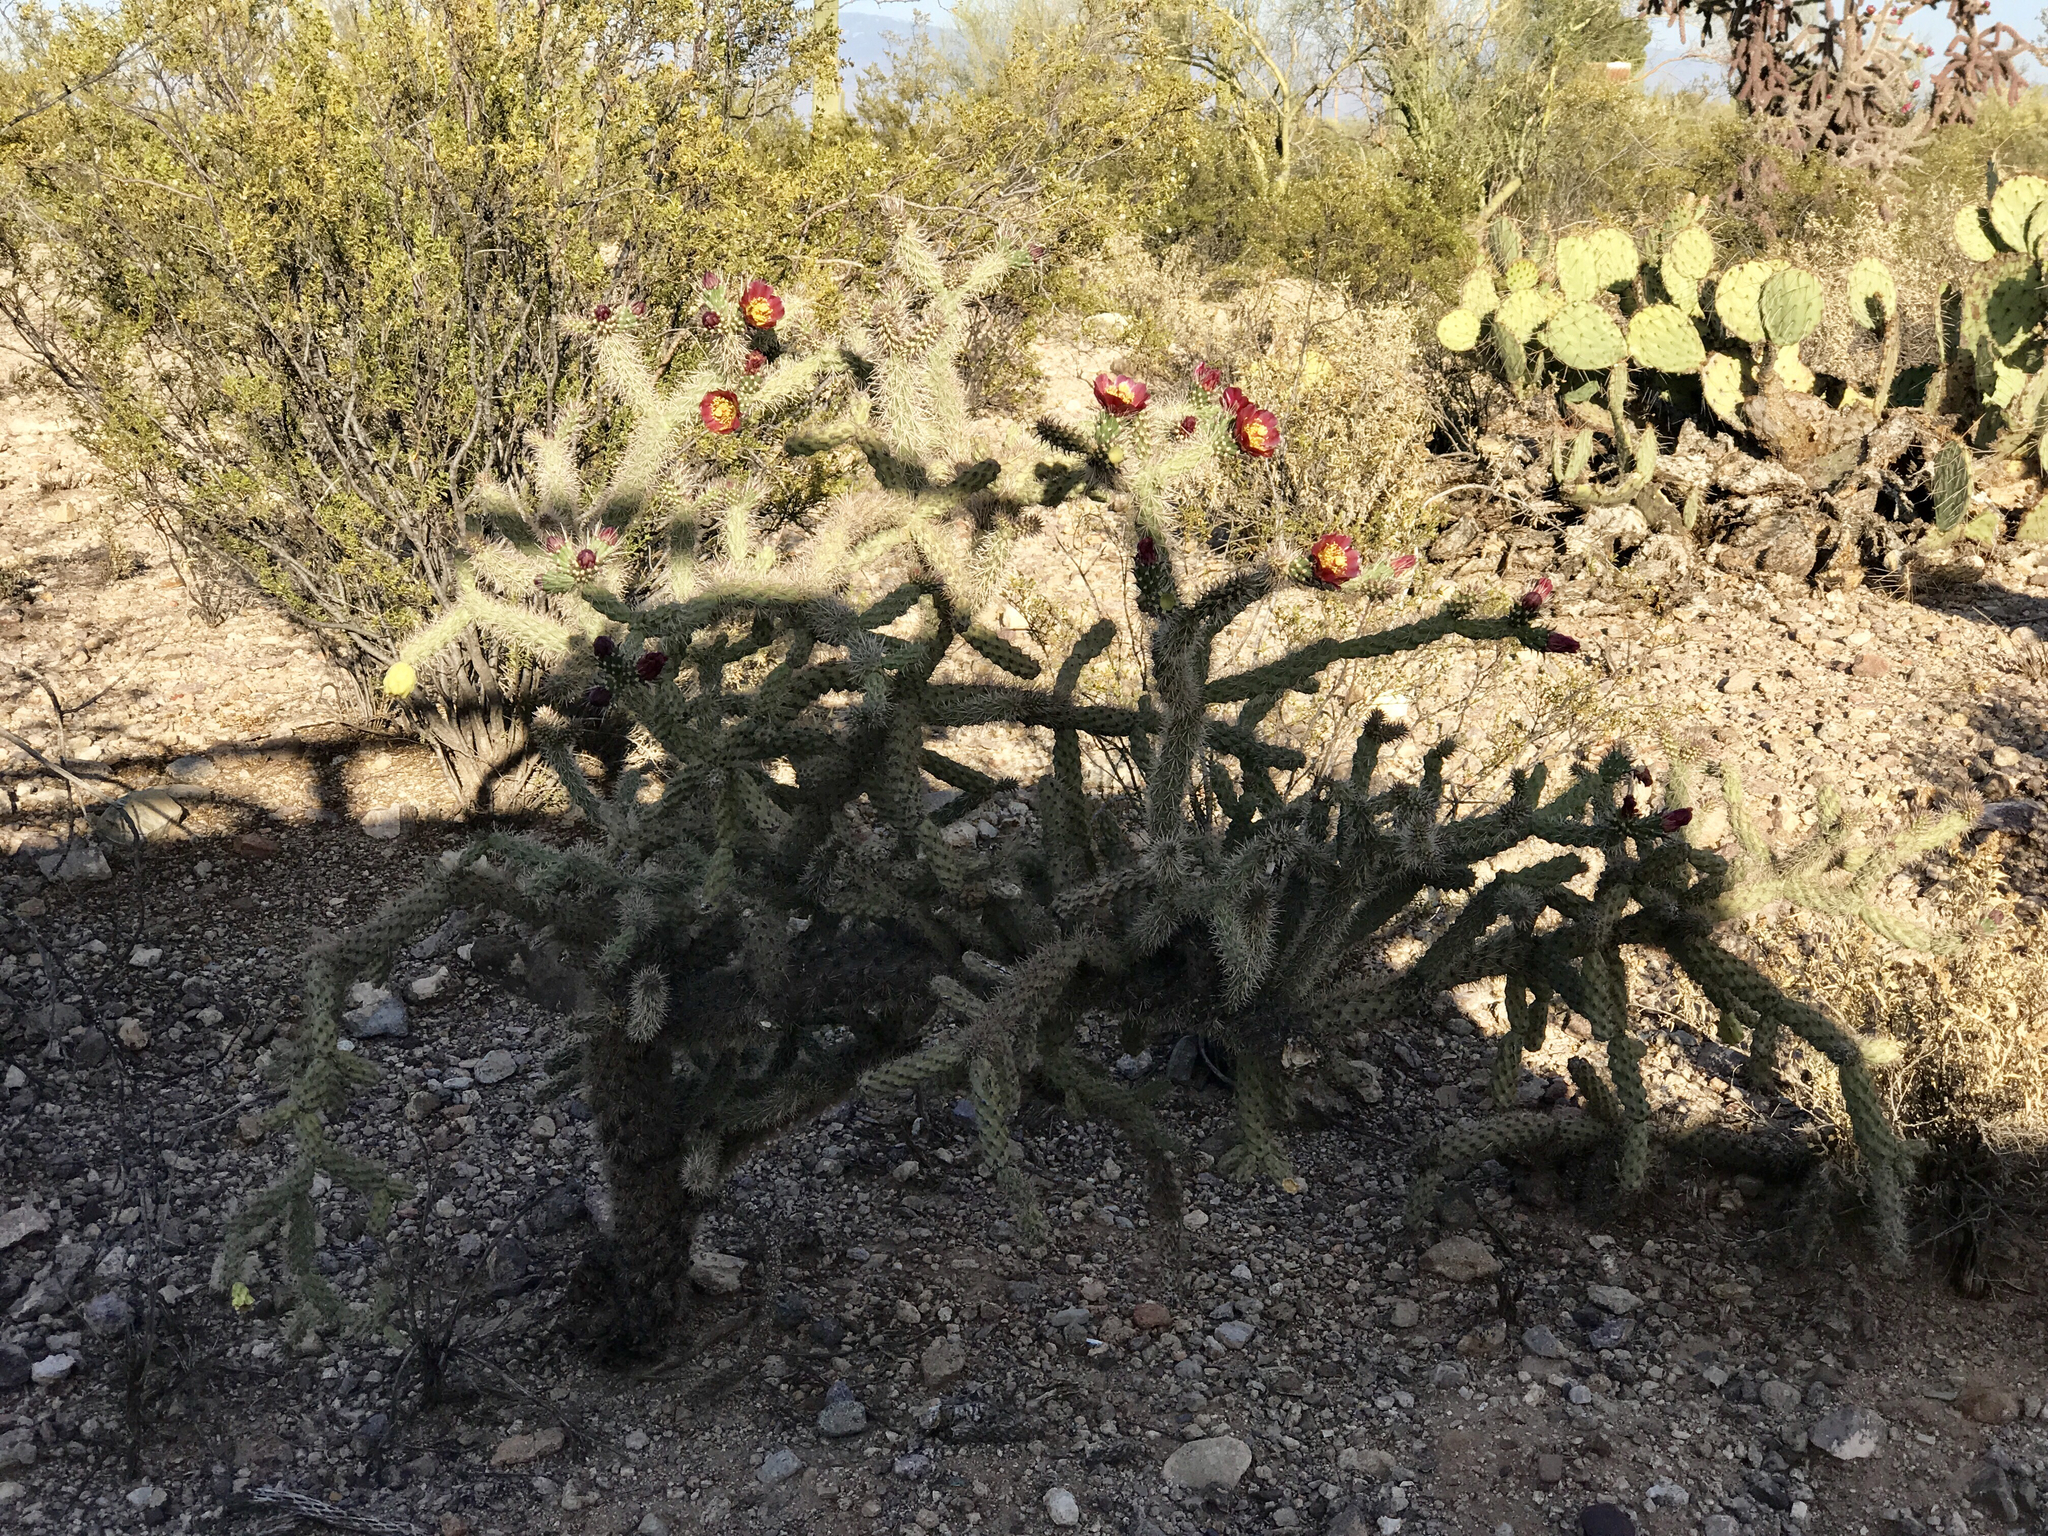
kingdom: Plantae
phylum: Tracheophyta
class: Magnoliopsida
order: Caryophyllales
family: Cactaceae
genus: Cylindropuntia
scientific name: Cylindropuntia imbricata
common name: Candelabrum cactus
